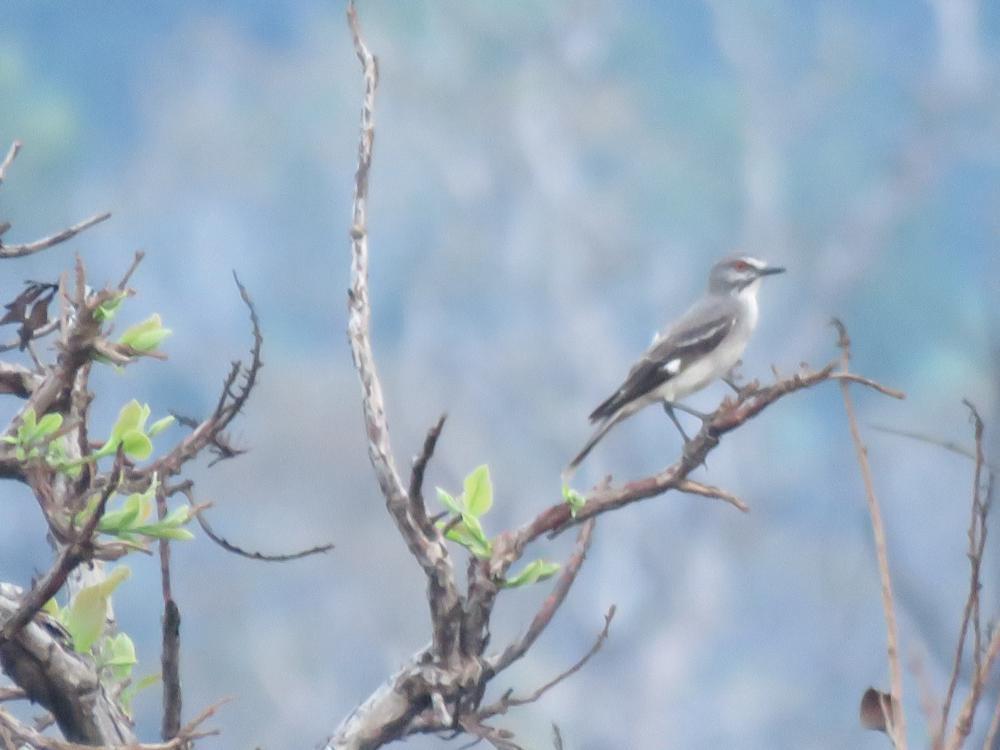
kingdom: Animalia
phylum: Chordata
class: Aves
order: Passeriformes
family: Tyrannidae
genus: Xolmis
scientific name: Xolmis cinereus
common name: Grey monjita
